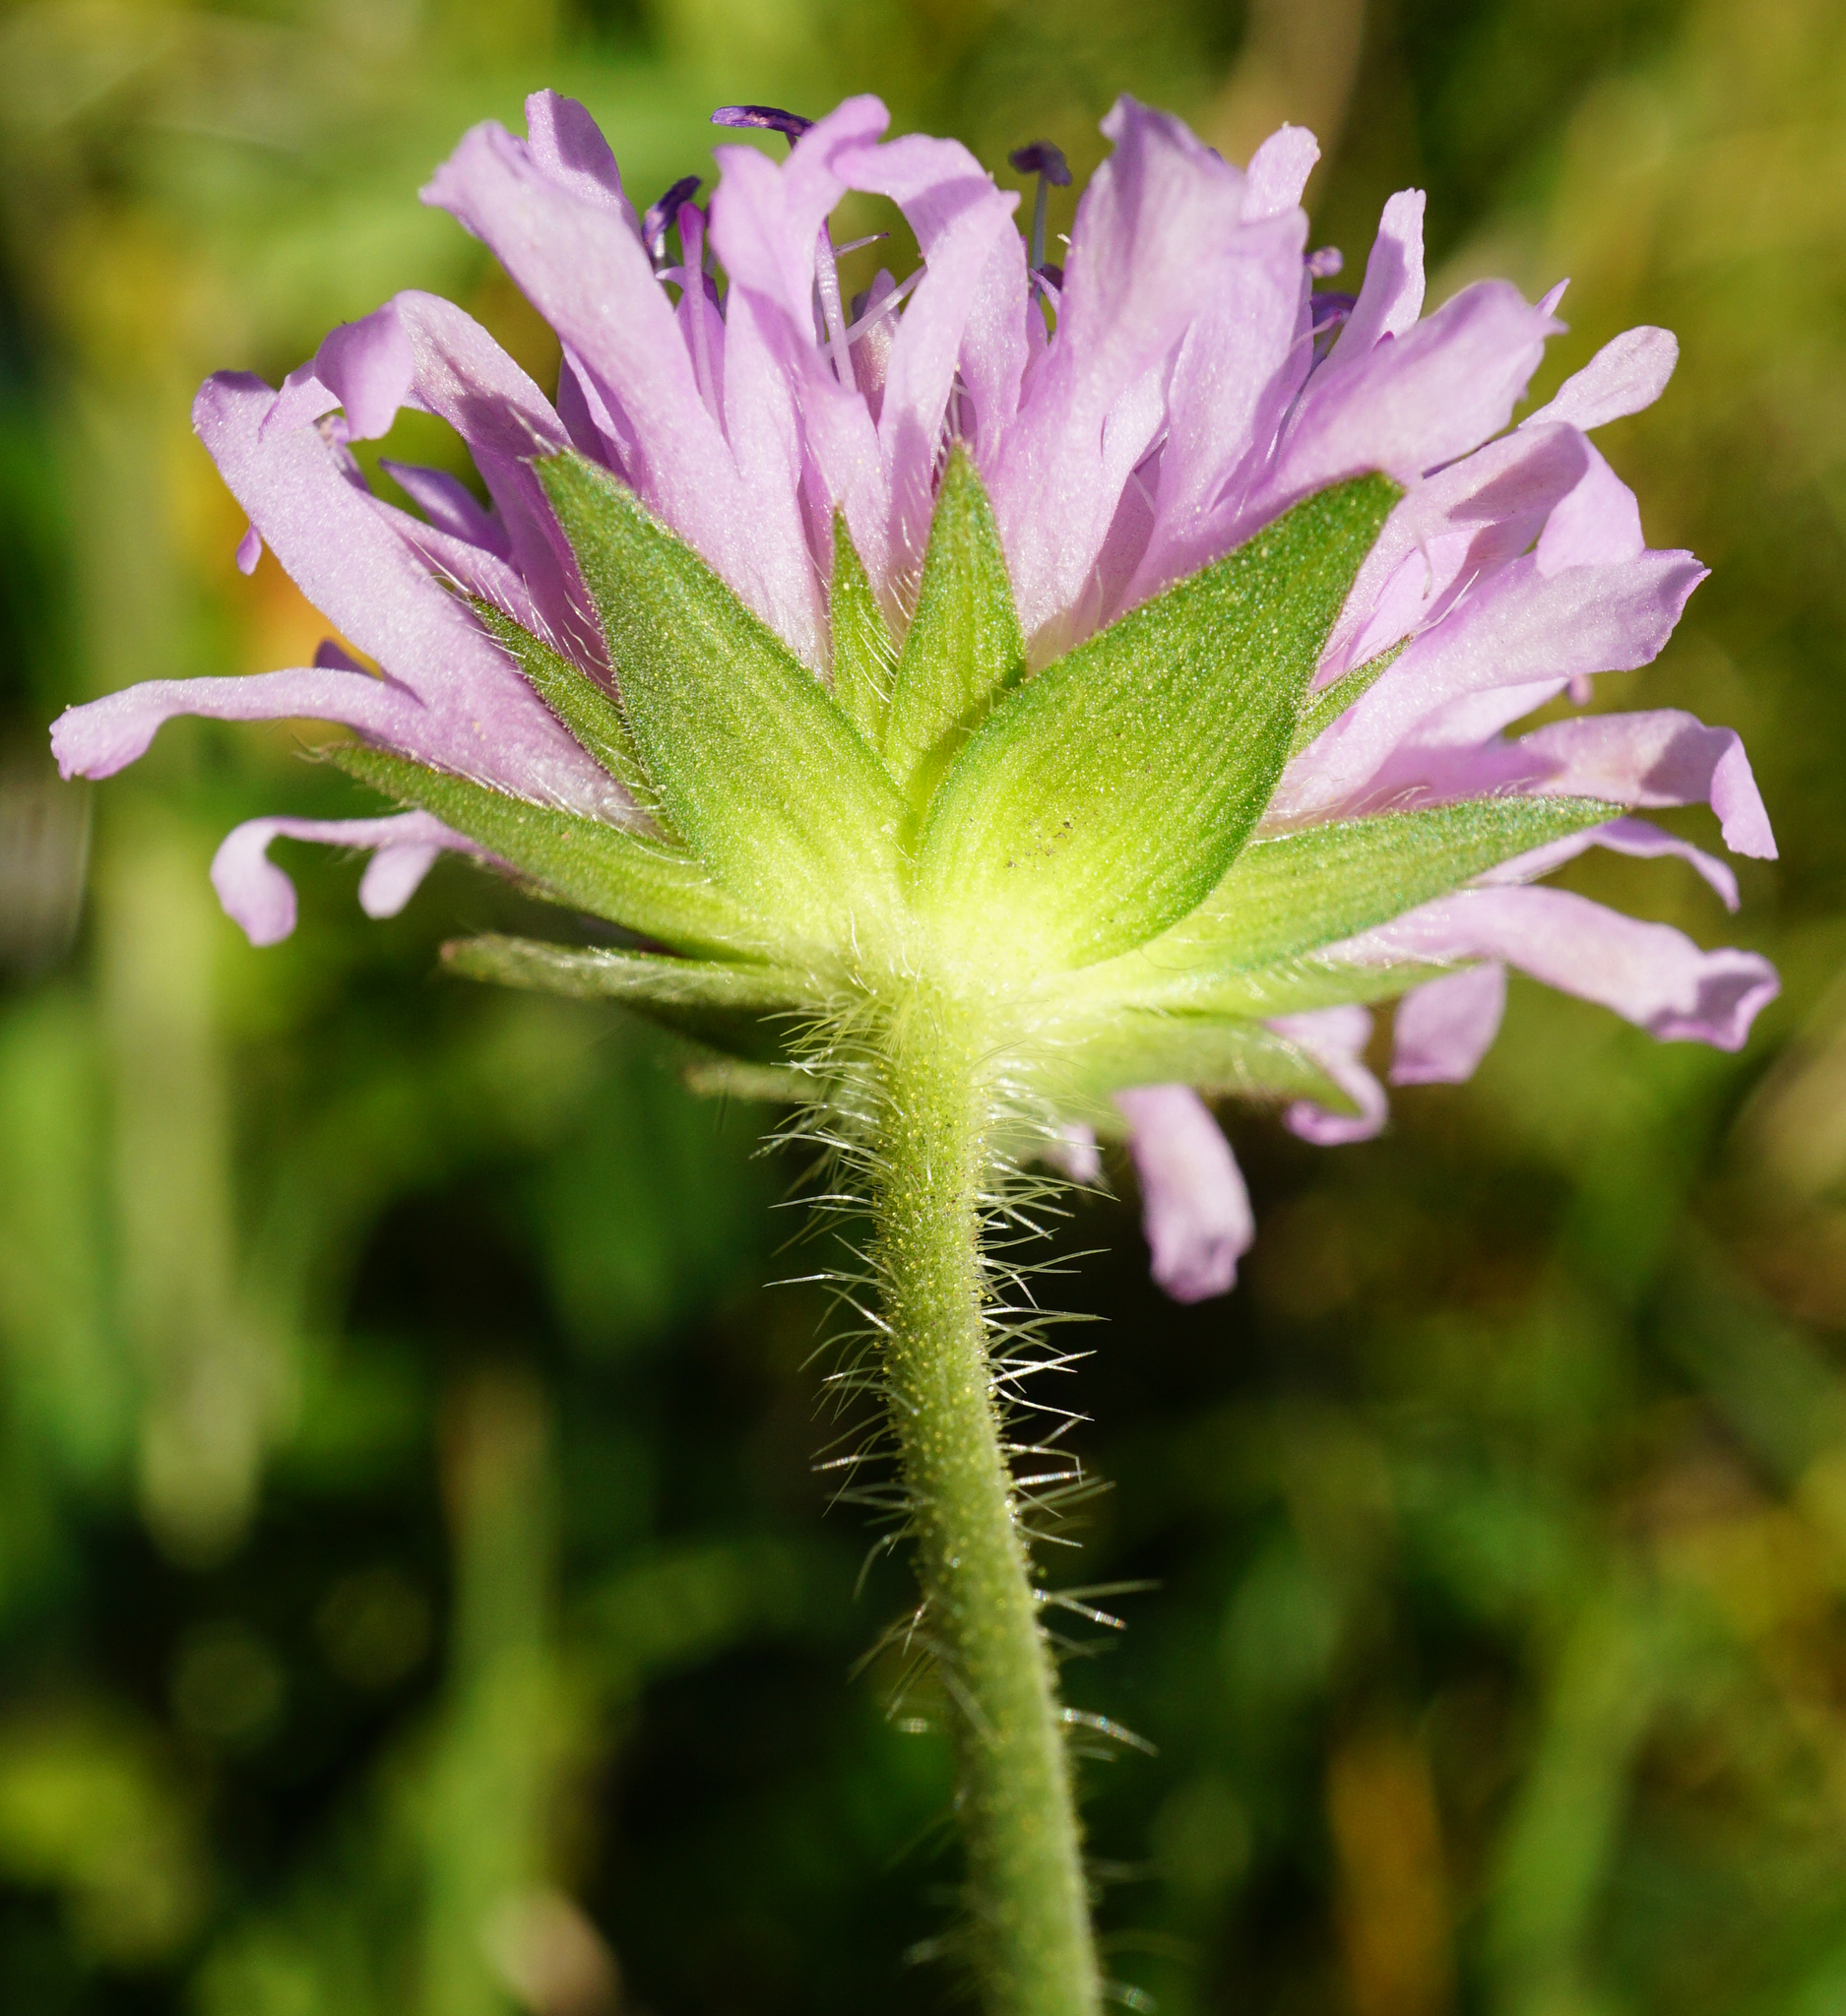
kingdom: Plantae
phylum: Tracheophyta
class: Magnoliopsida
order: Dipsacales
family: Caprifoliaceae
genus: Knautia
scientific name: Knautia arvensis
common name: Field scabiosa
